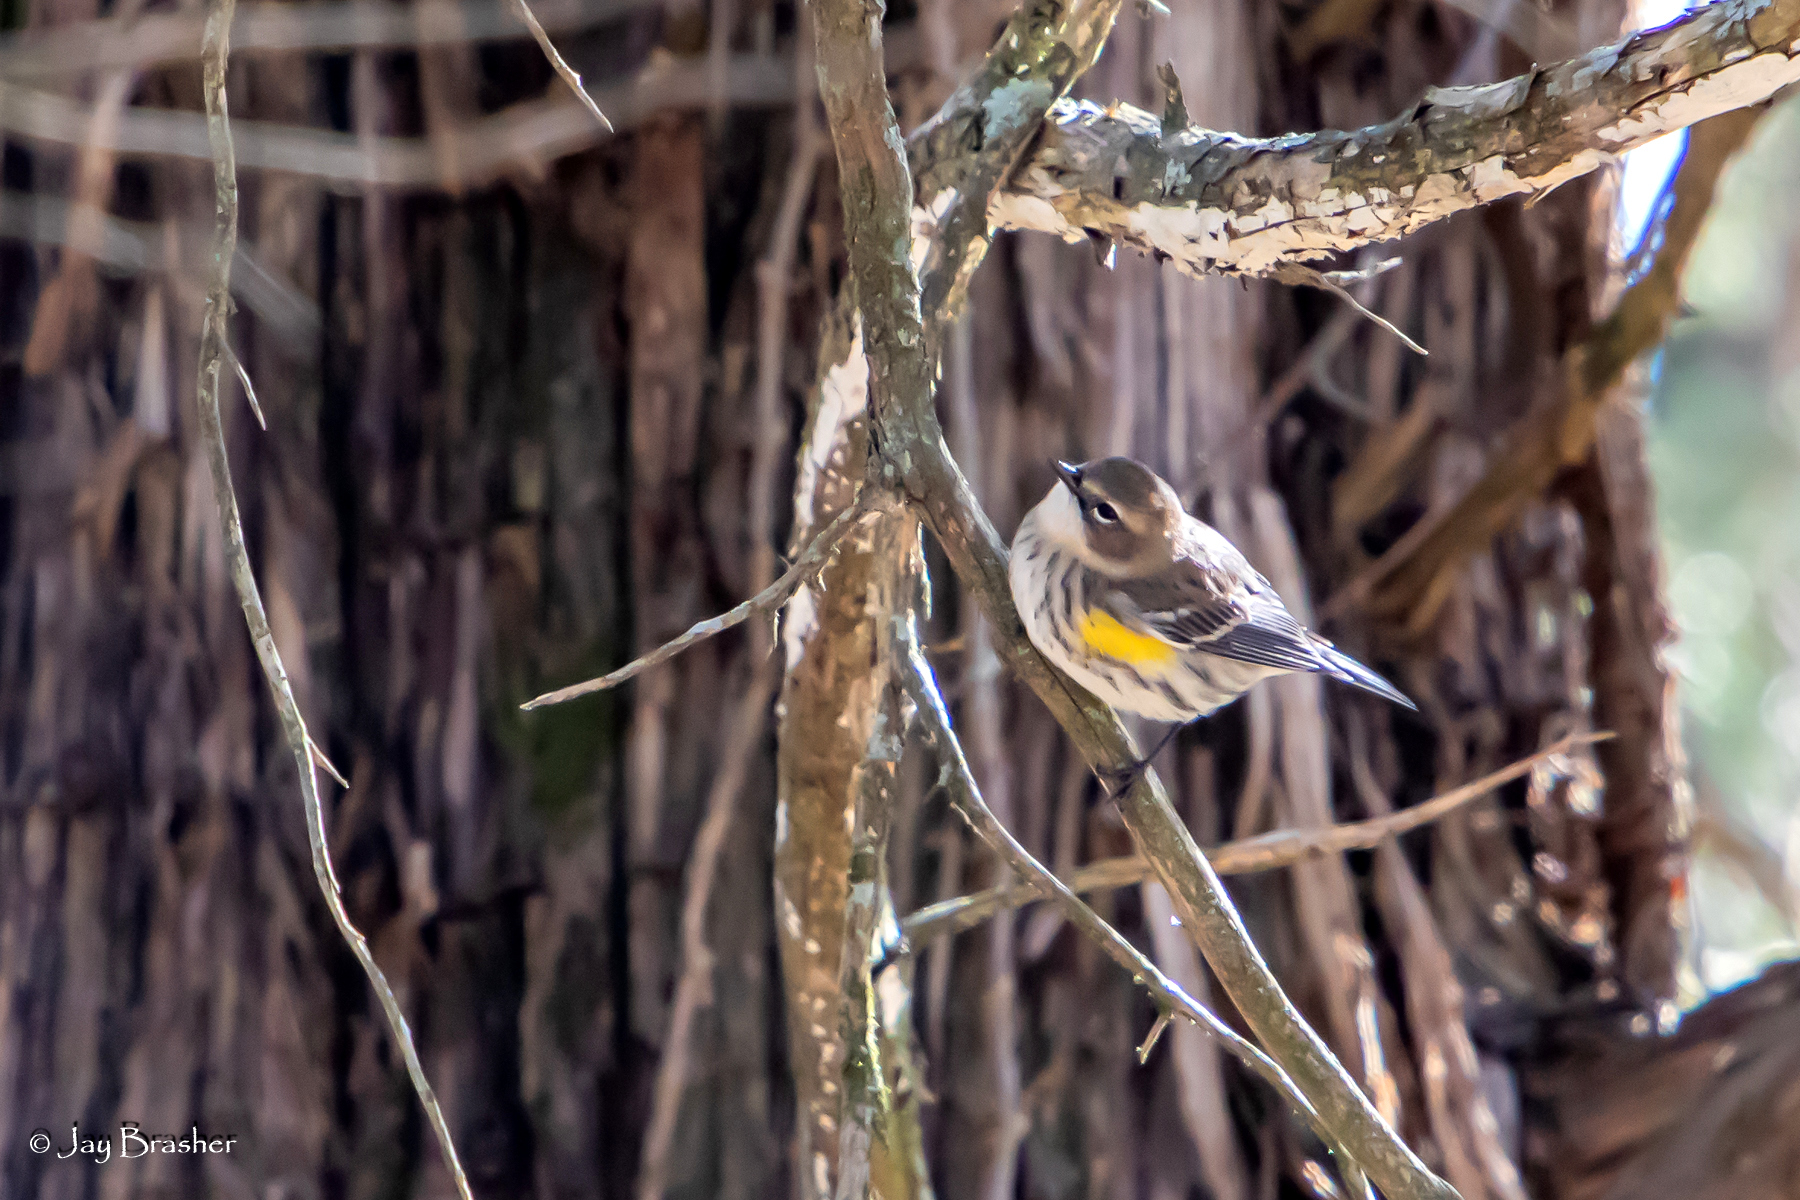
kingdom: Animalia
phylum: Chordata
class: Aves
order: Passeriformes
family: Parulidae
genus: Setophaga
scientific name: Setophaga coronata
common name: Myrtle warbler
